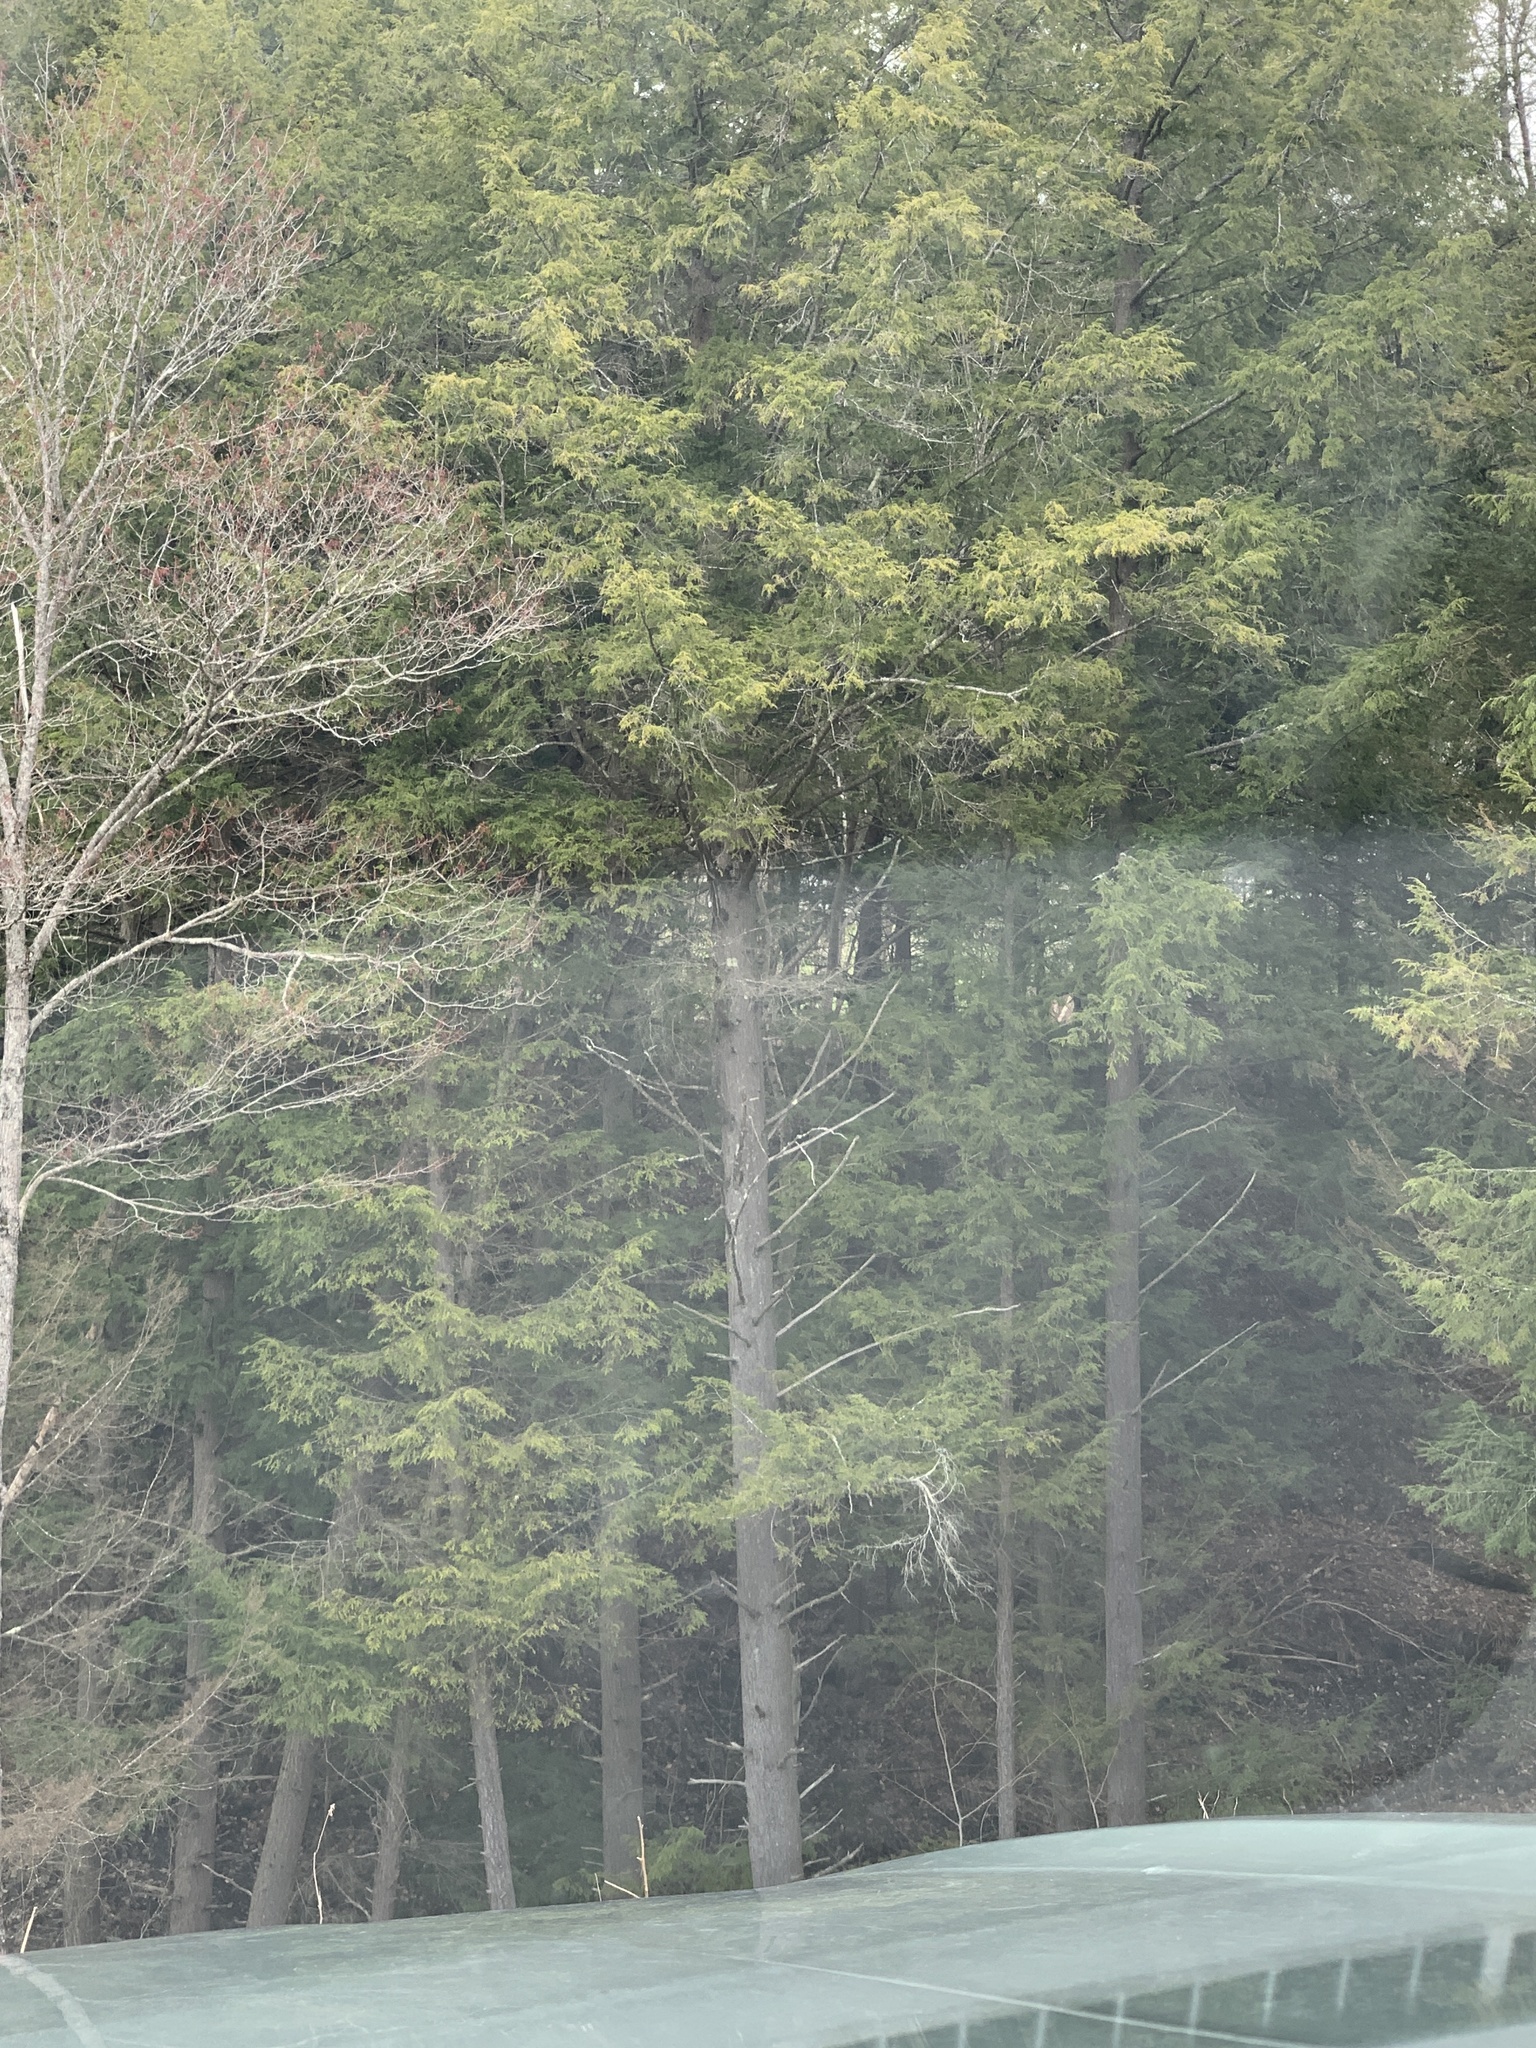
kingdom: Plantae
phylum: Tracheophyta
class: Pinopsida
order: Pinales
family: Pinaceae
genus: Tsuga
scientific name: Tsuga canadensis
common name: Eastern hemlock
